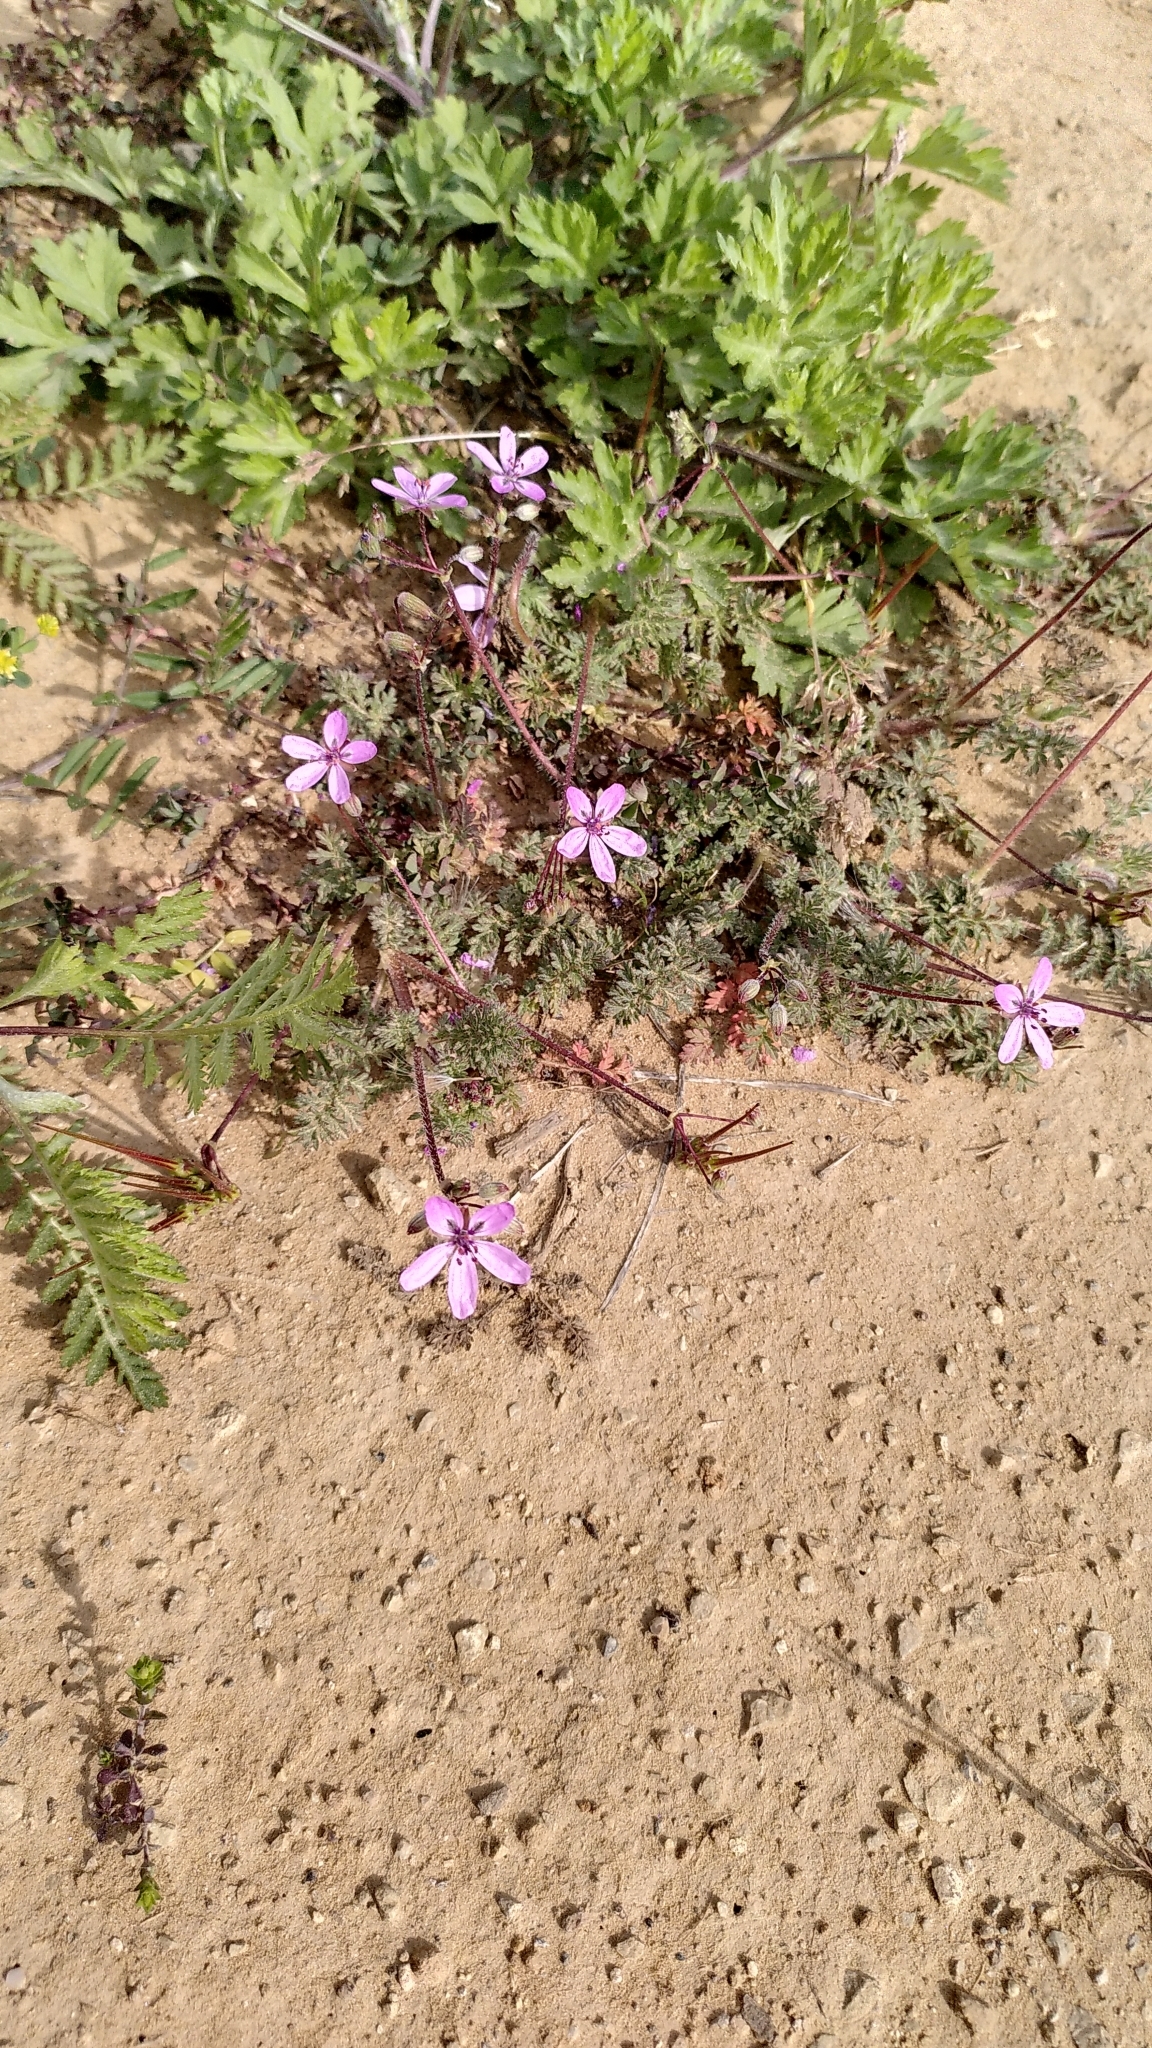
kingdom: Plantae
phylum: Tracheophyta
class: Magnoliopsida
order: Geraniales
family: Geraniaceae
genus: Erodium
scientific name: Erodium cicutarium
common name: Common stork's-bill
